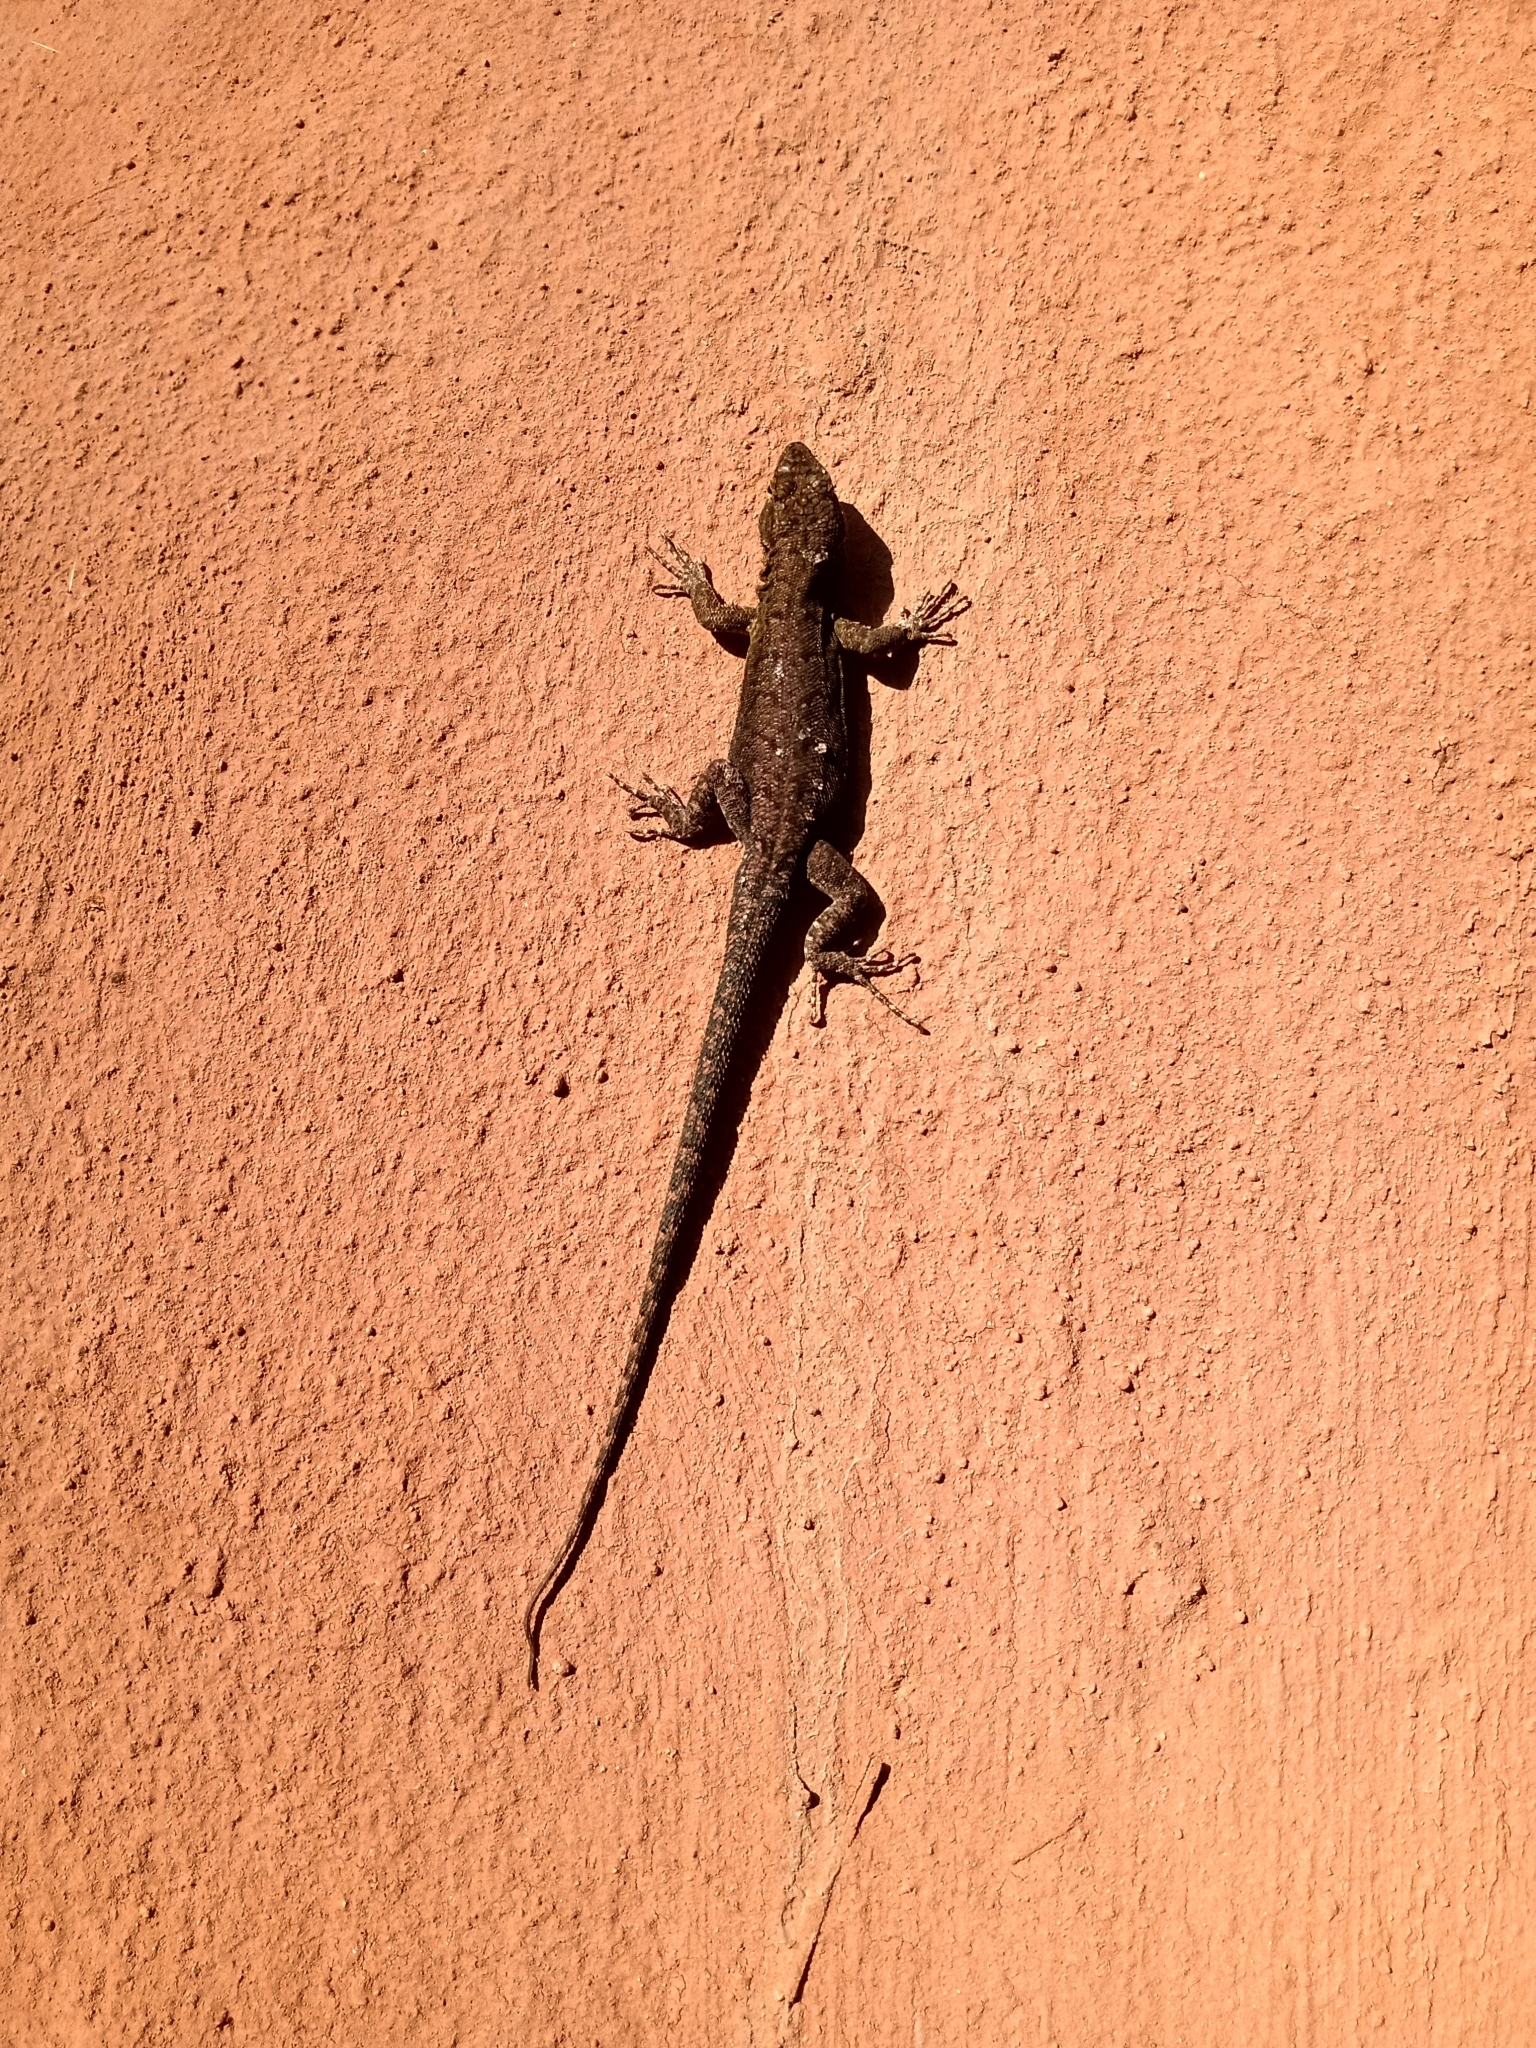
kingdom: Animalia
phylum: Chordata
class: Squamata
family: Liolaemidae
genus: Liolaemus
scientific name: Liolaemus tenuis
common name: Thin tree iguana
